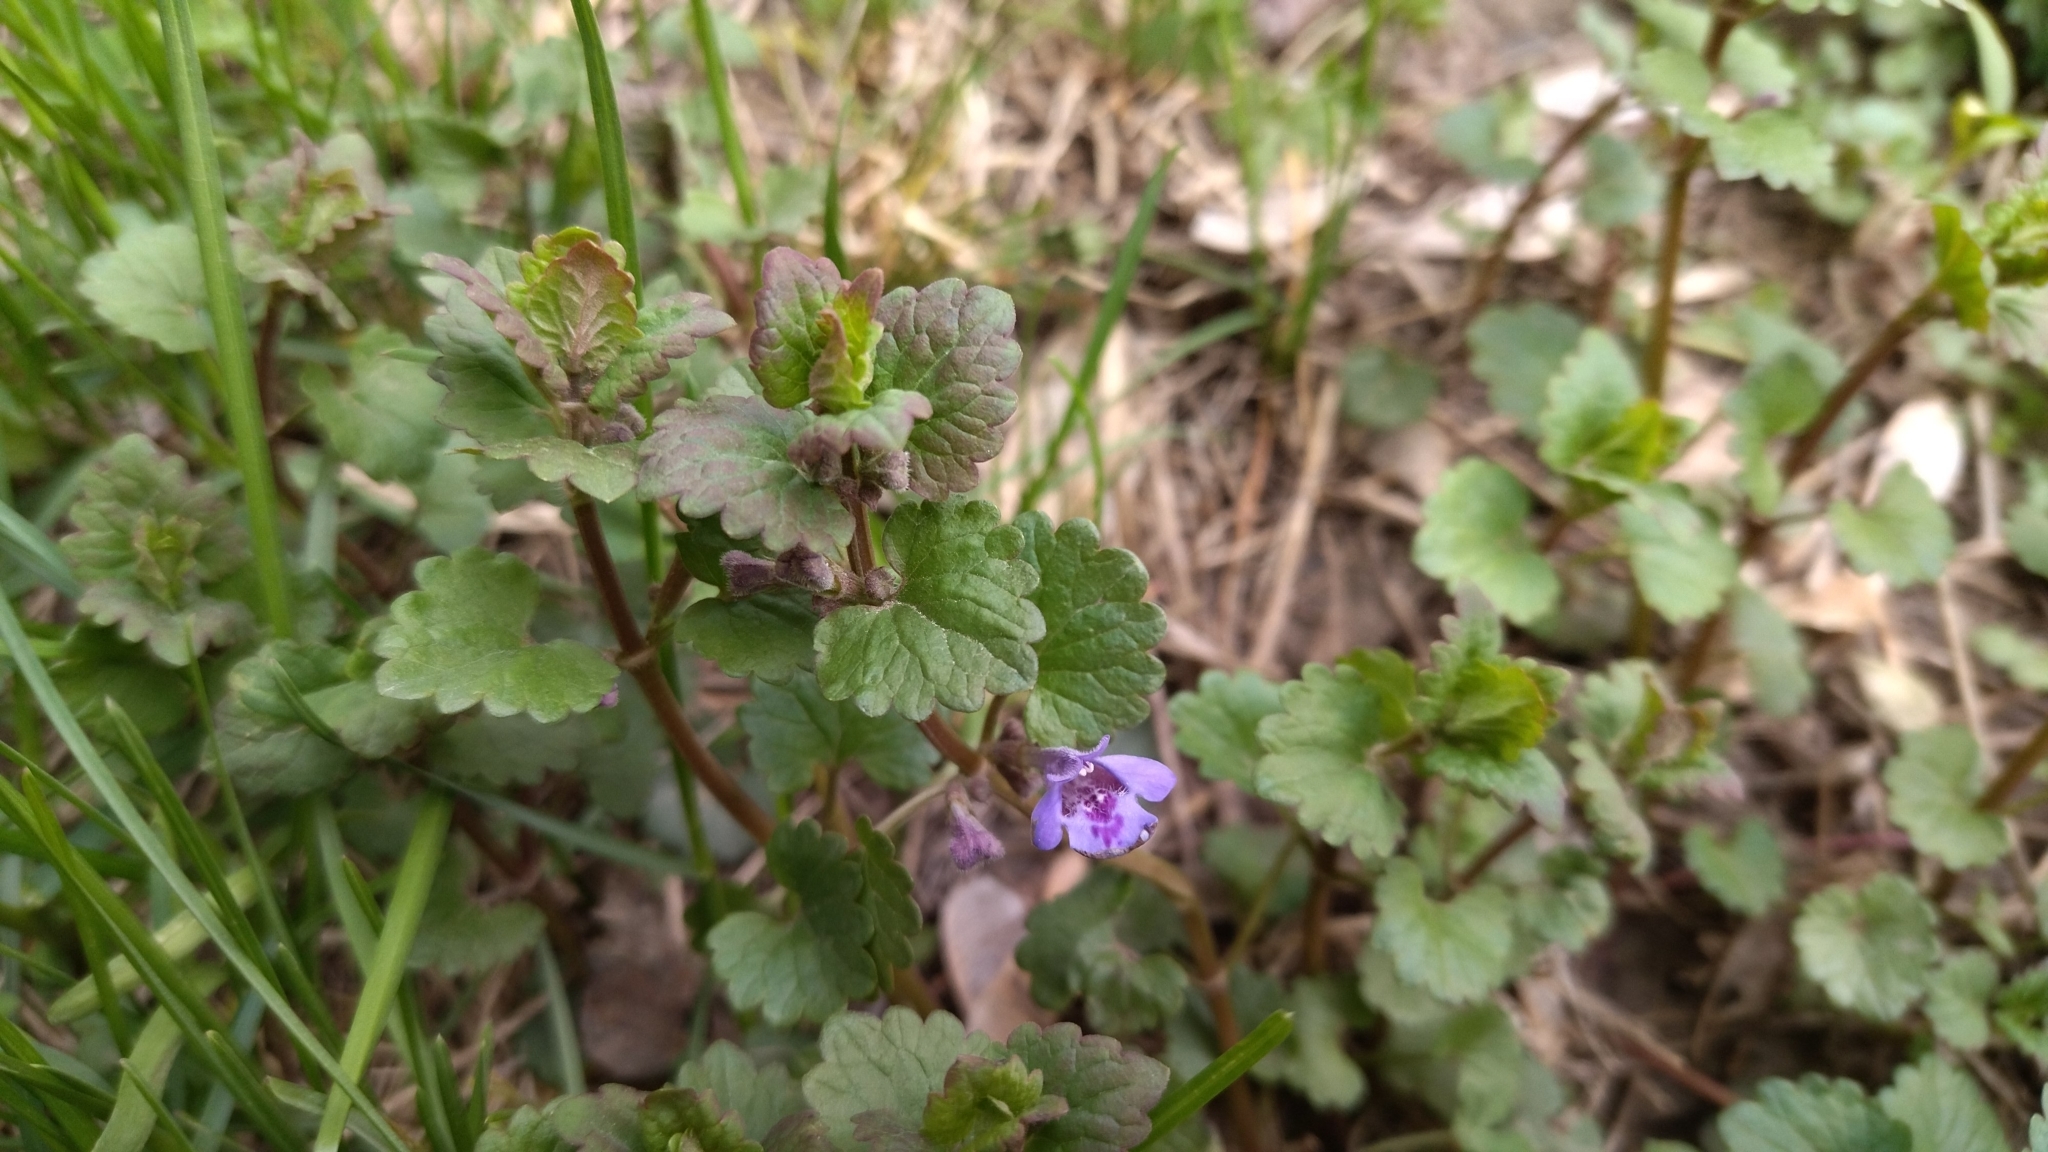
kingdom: Plantae
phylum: Tracheophyta
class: Magnoliopsida
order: Lamiales
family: Lamiaceae
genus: Glechoma
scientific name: Glechoma hederacea
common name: Ground ivy
